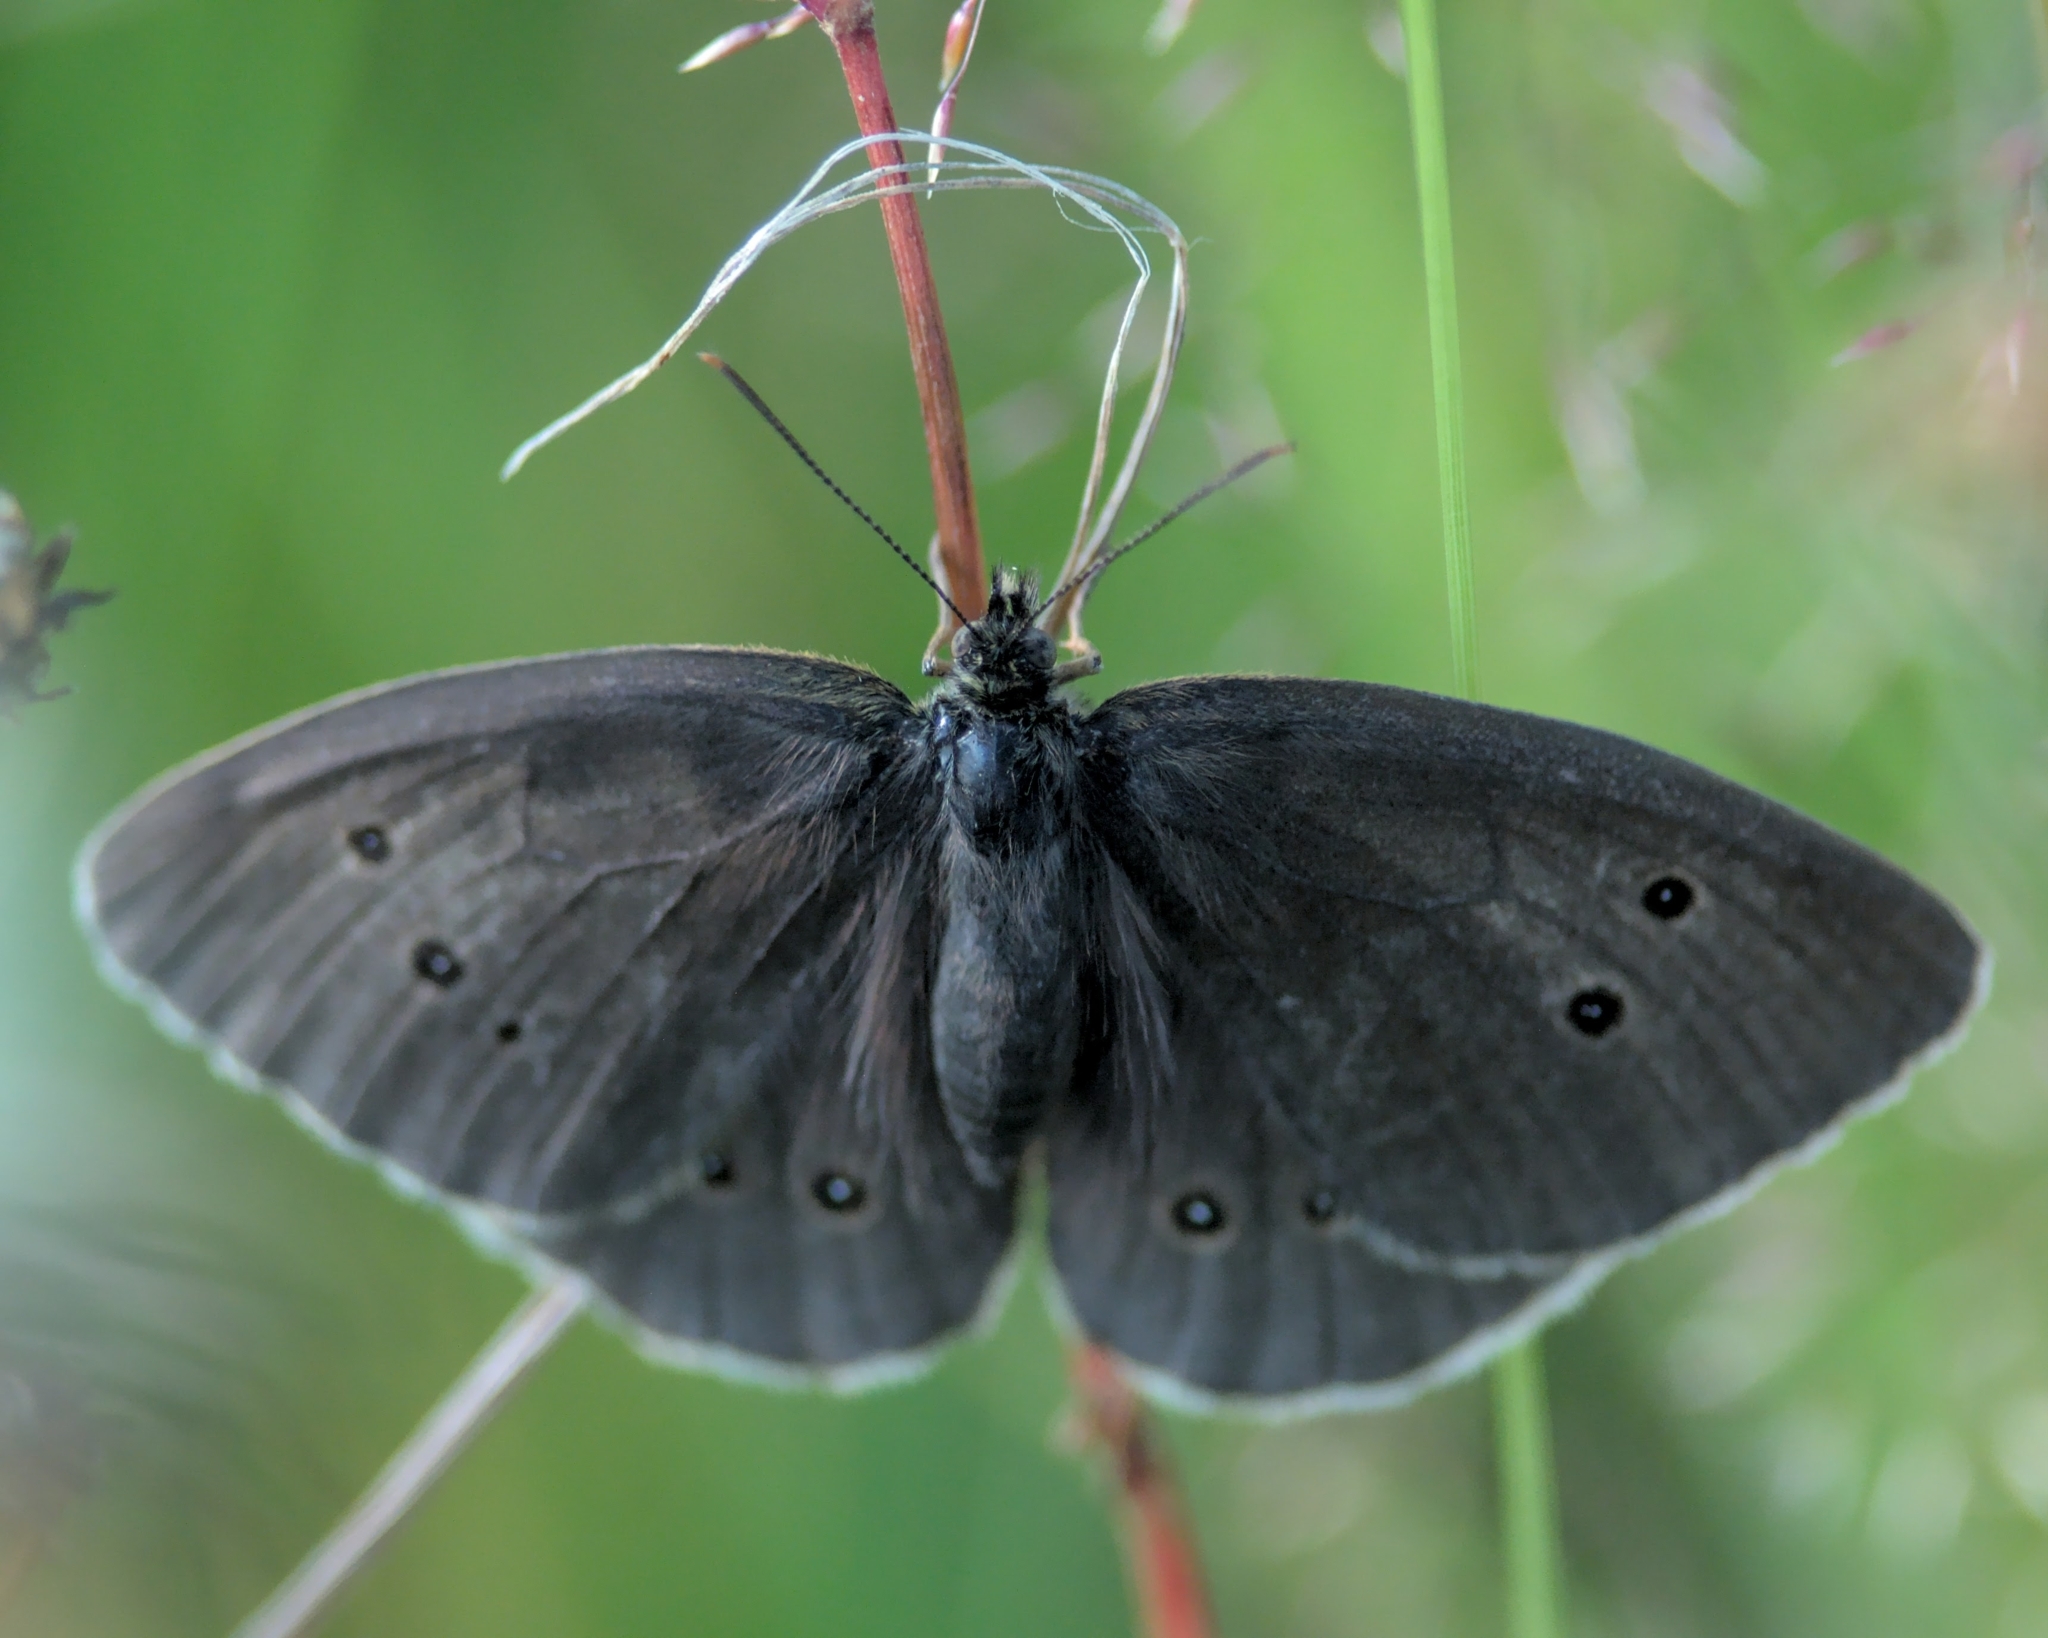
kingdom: Animalia
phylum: Arthropoda
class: Insecta
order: Lepidoptera
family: Nymphalidae
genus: Aphantopus
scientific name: Aphantopus hyperantus
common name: Ringlet
